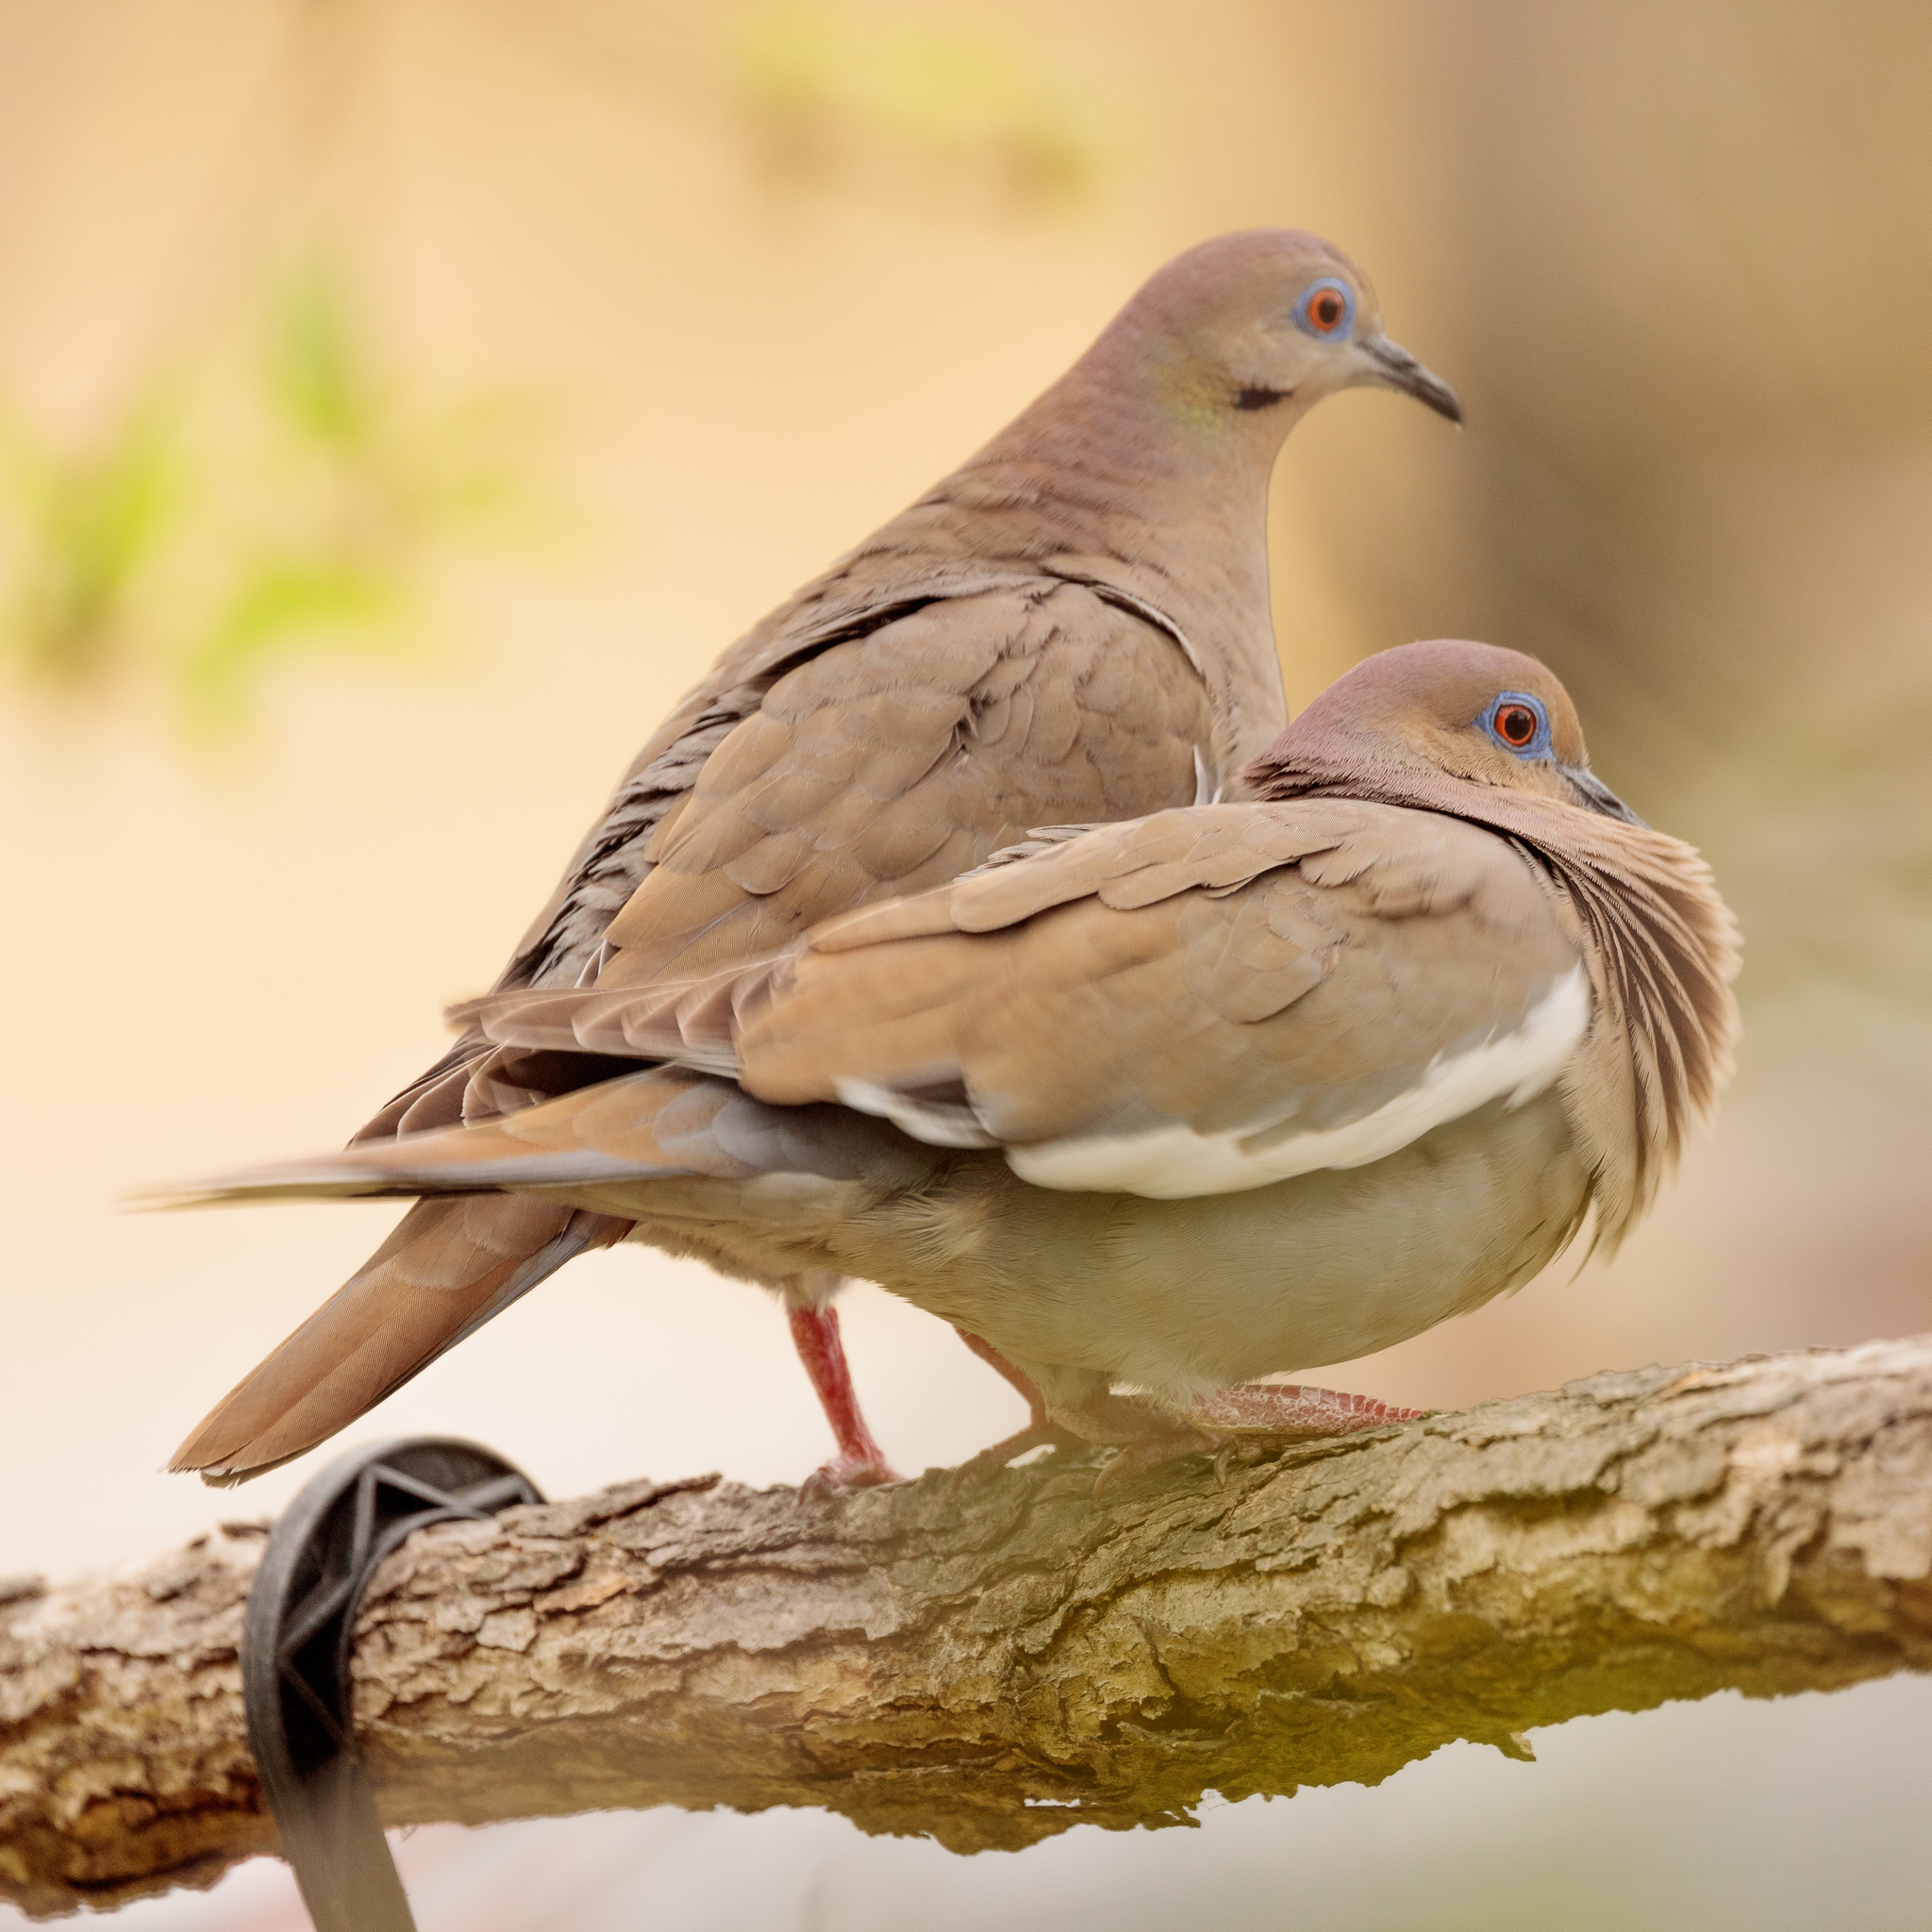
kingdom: Animalia
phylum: Chordata
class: Aves
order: Columbiformes
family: Columbidae
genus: Zenaida
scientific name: Zenaida asiatica
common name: White-winged dove
